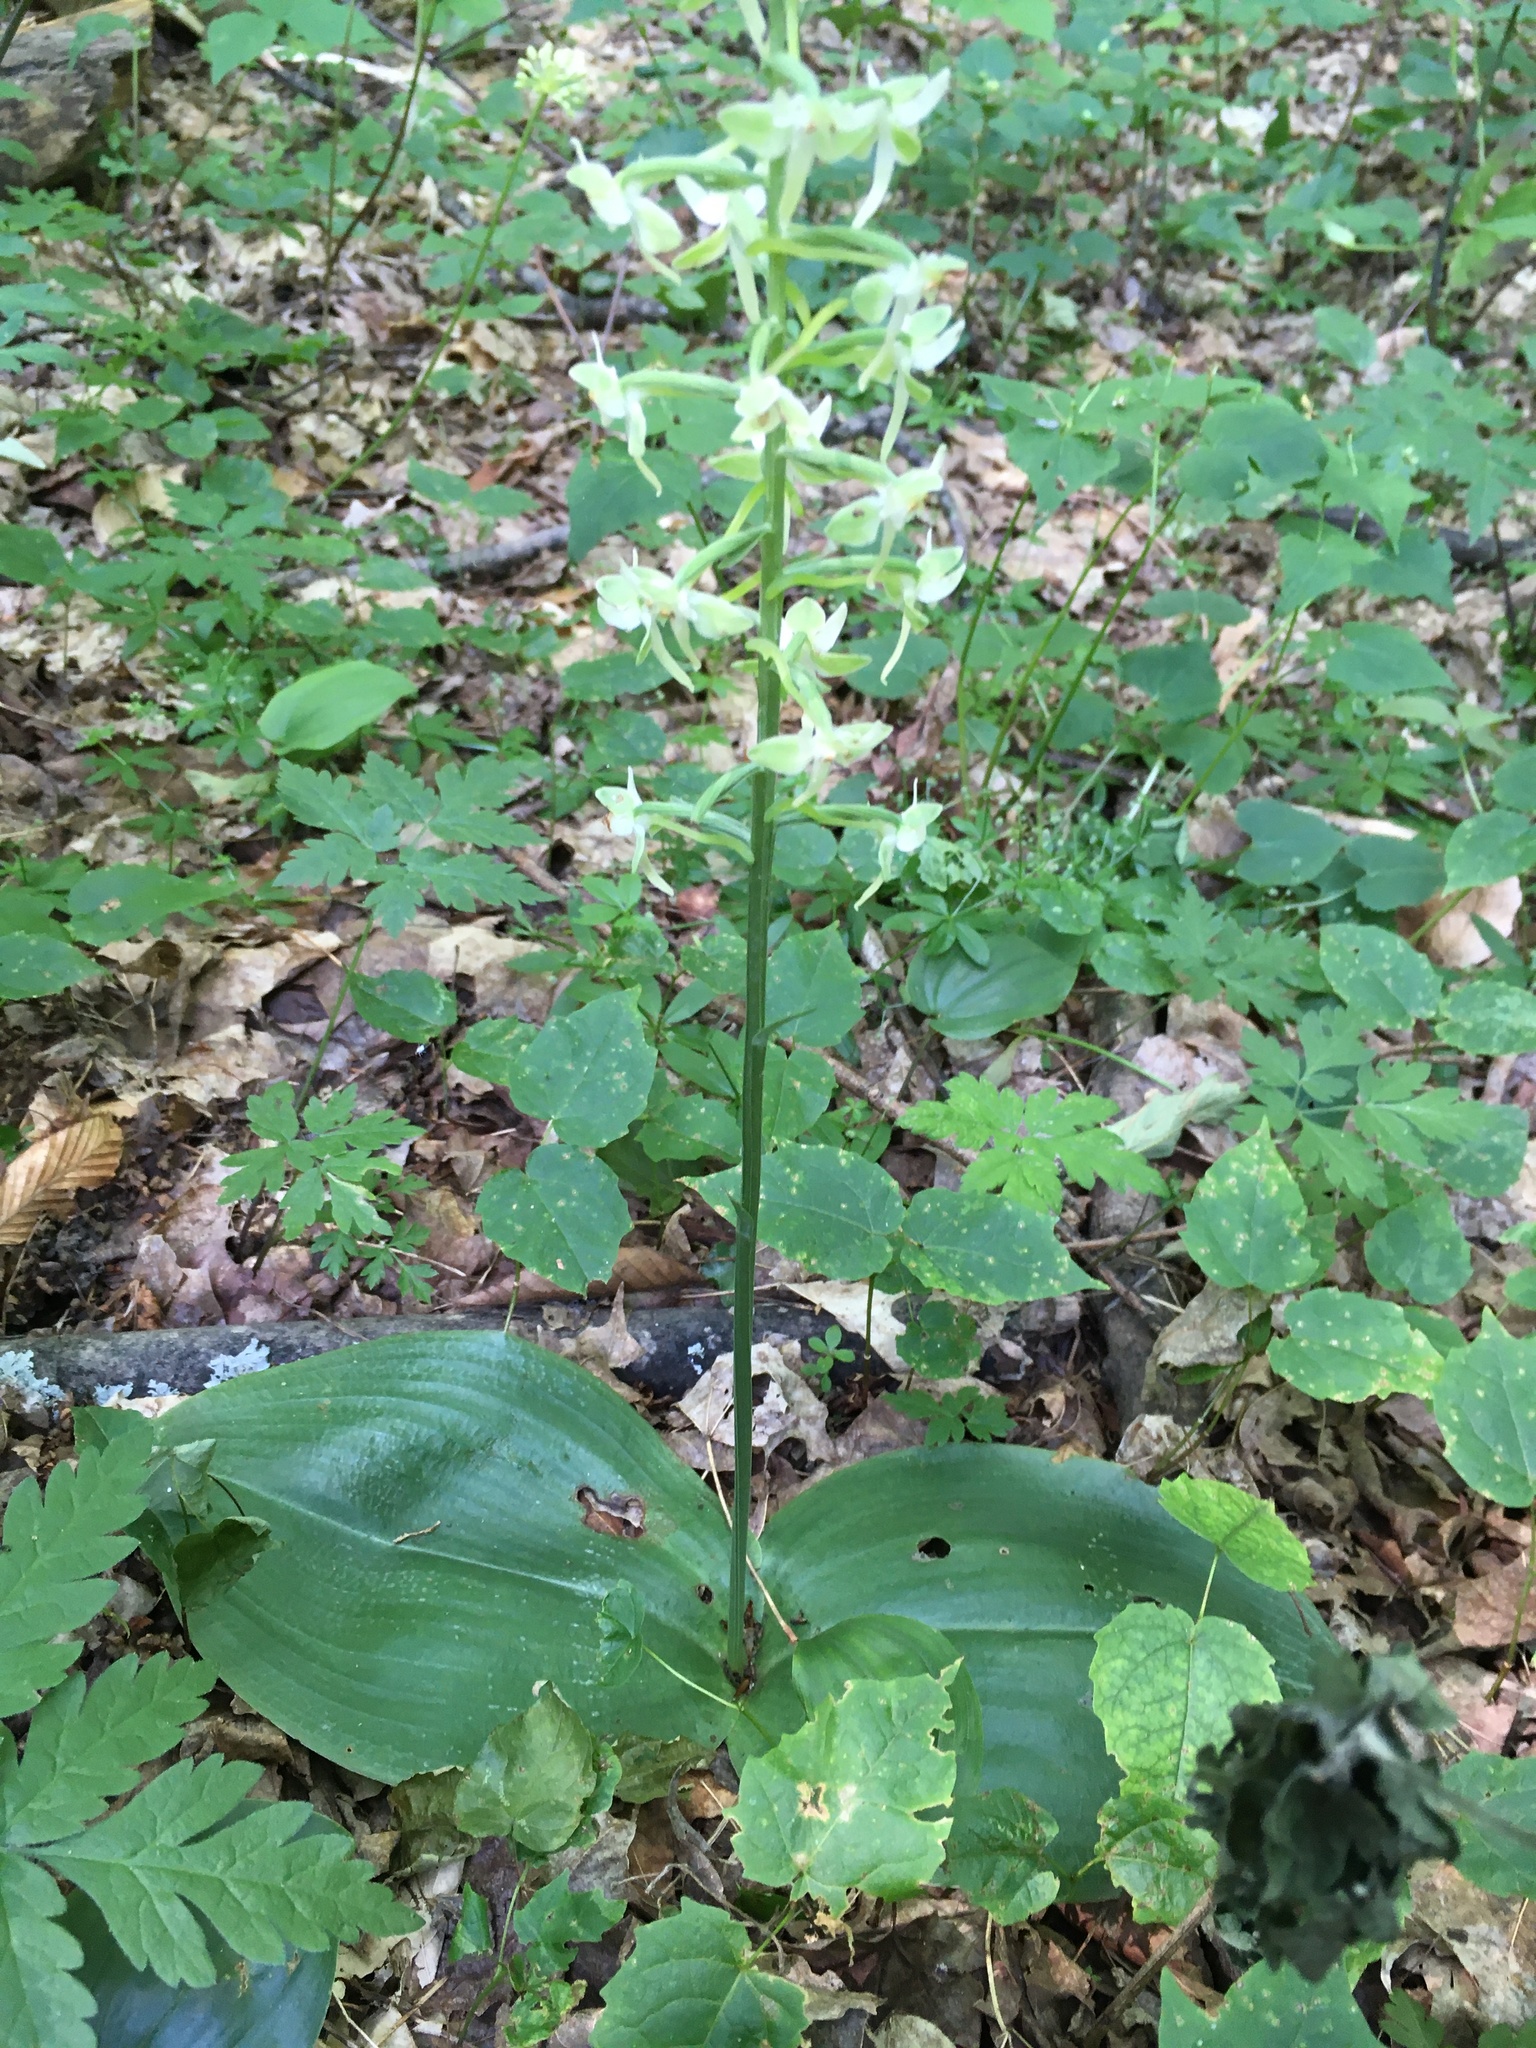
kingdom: Plantae
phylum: Tracheophyta
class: Liliopsida
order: Asparagales
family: Orchidaceae
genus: Platanthera
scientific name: Platanthera orbiculata
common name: Large round-leaved orchid
